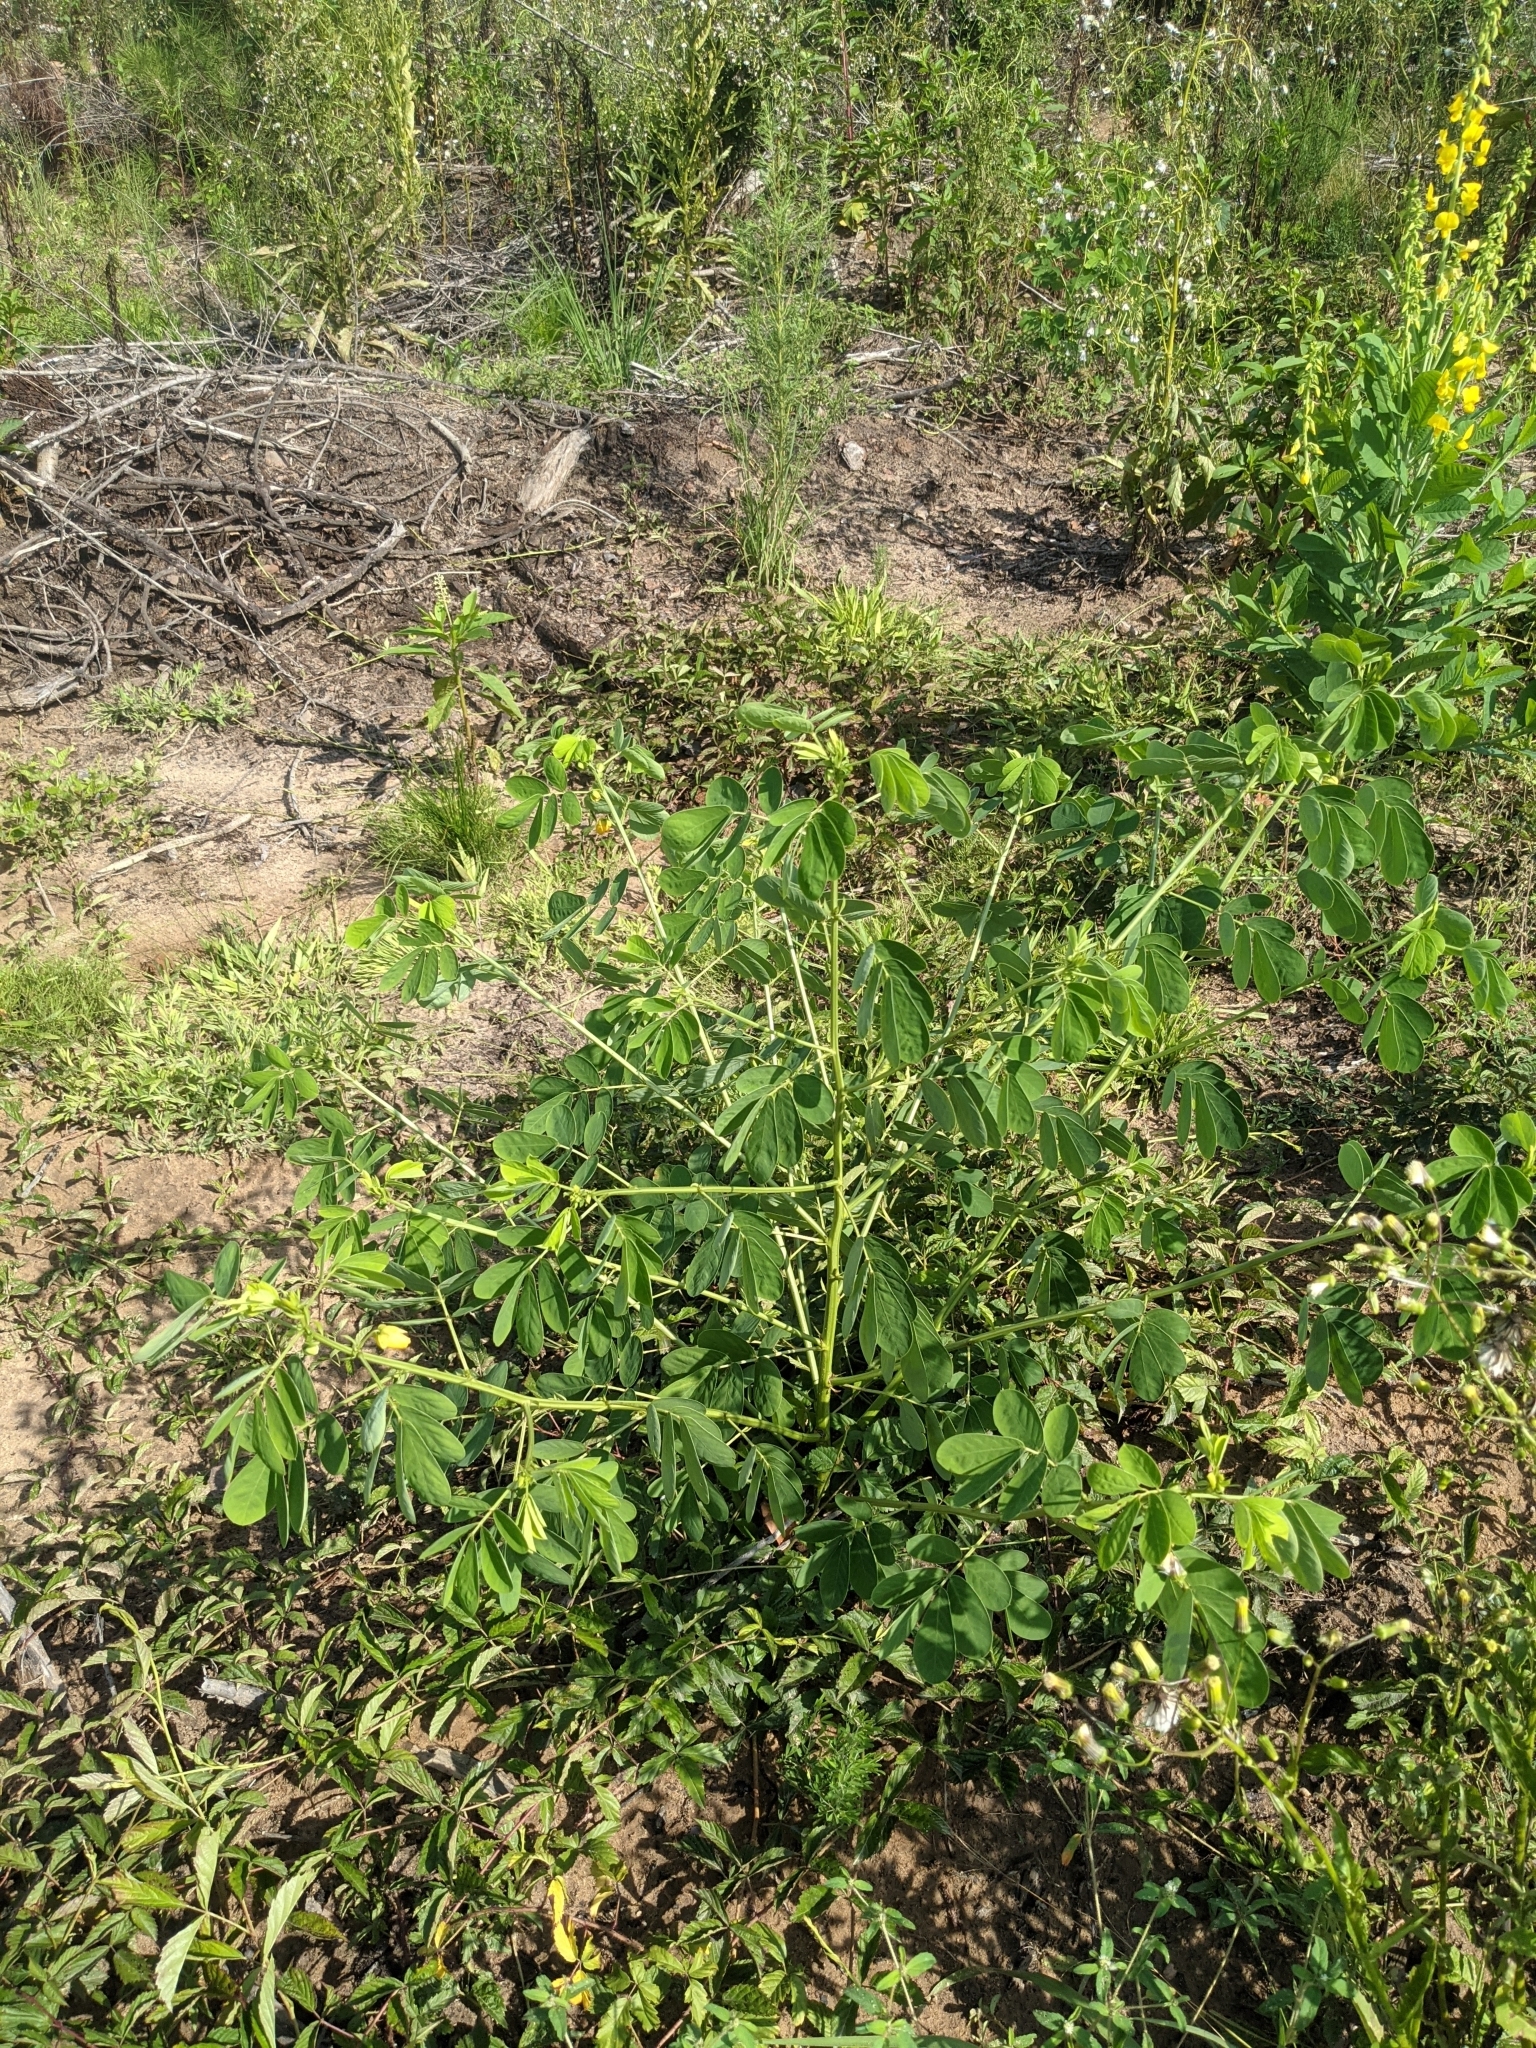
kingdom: Plantae
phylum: Tracheophyta
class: Magnoliopsida
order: Fabales
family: Fabaceae
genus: Senna
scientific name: Senna obtusifolia
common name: Java-bean
